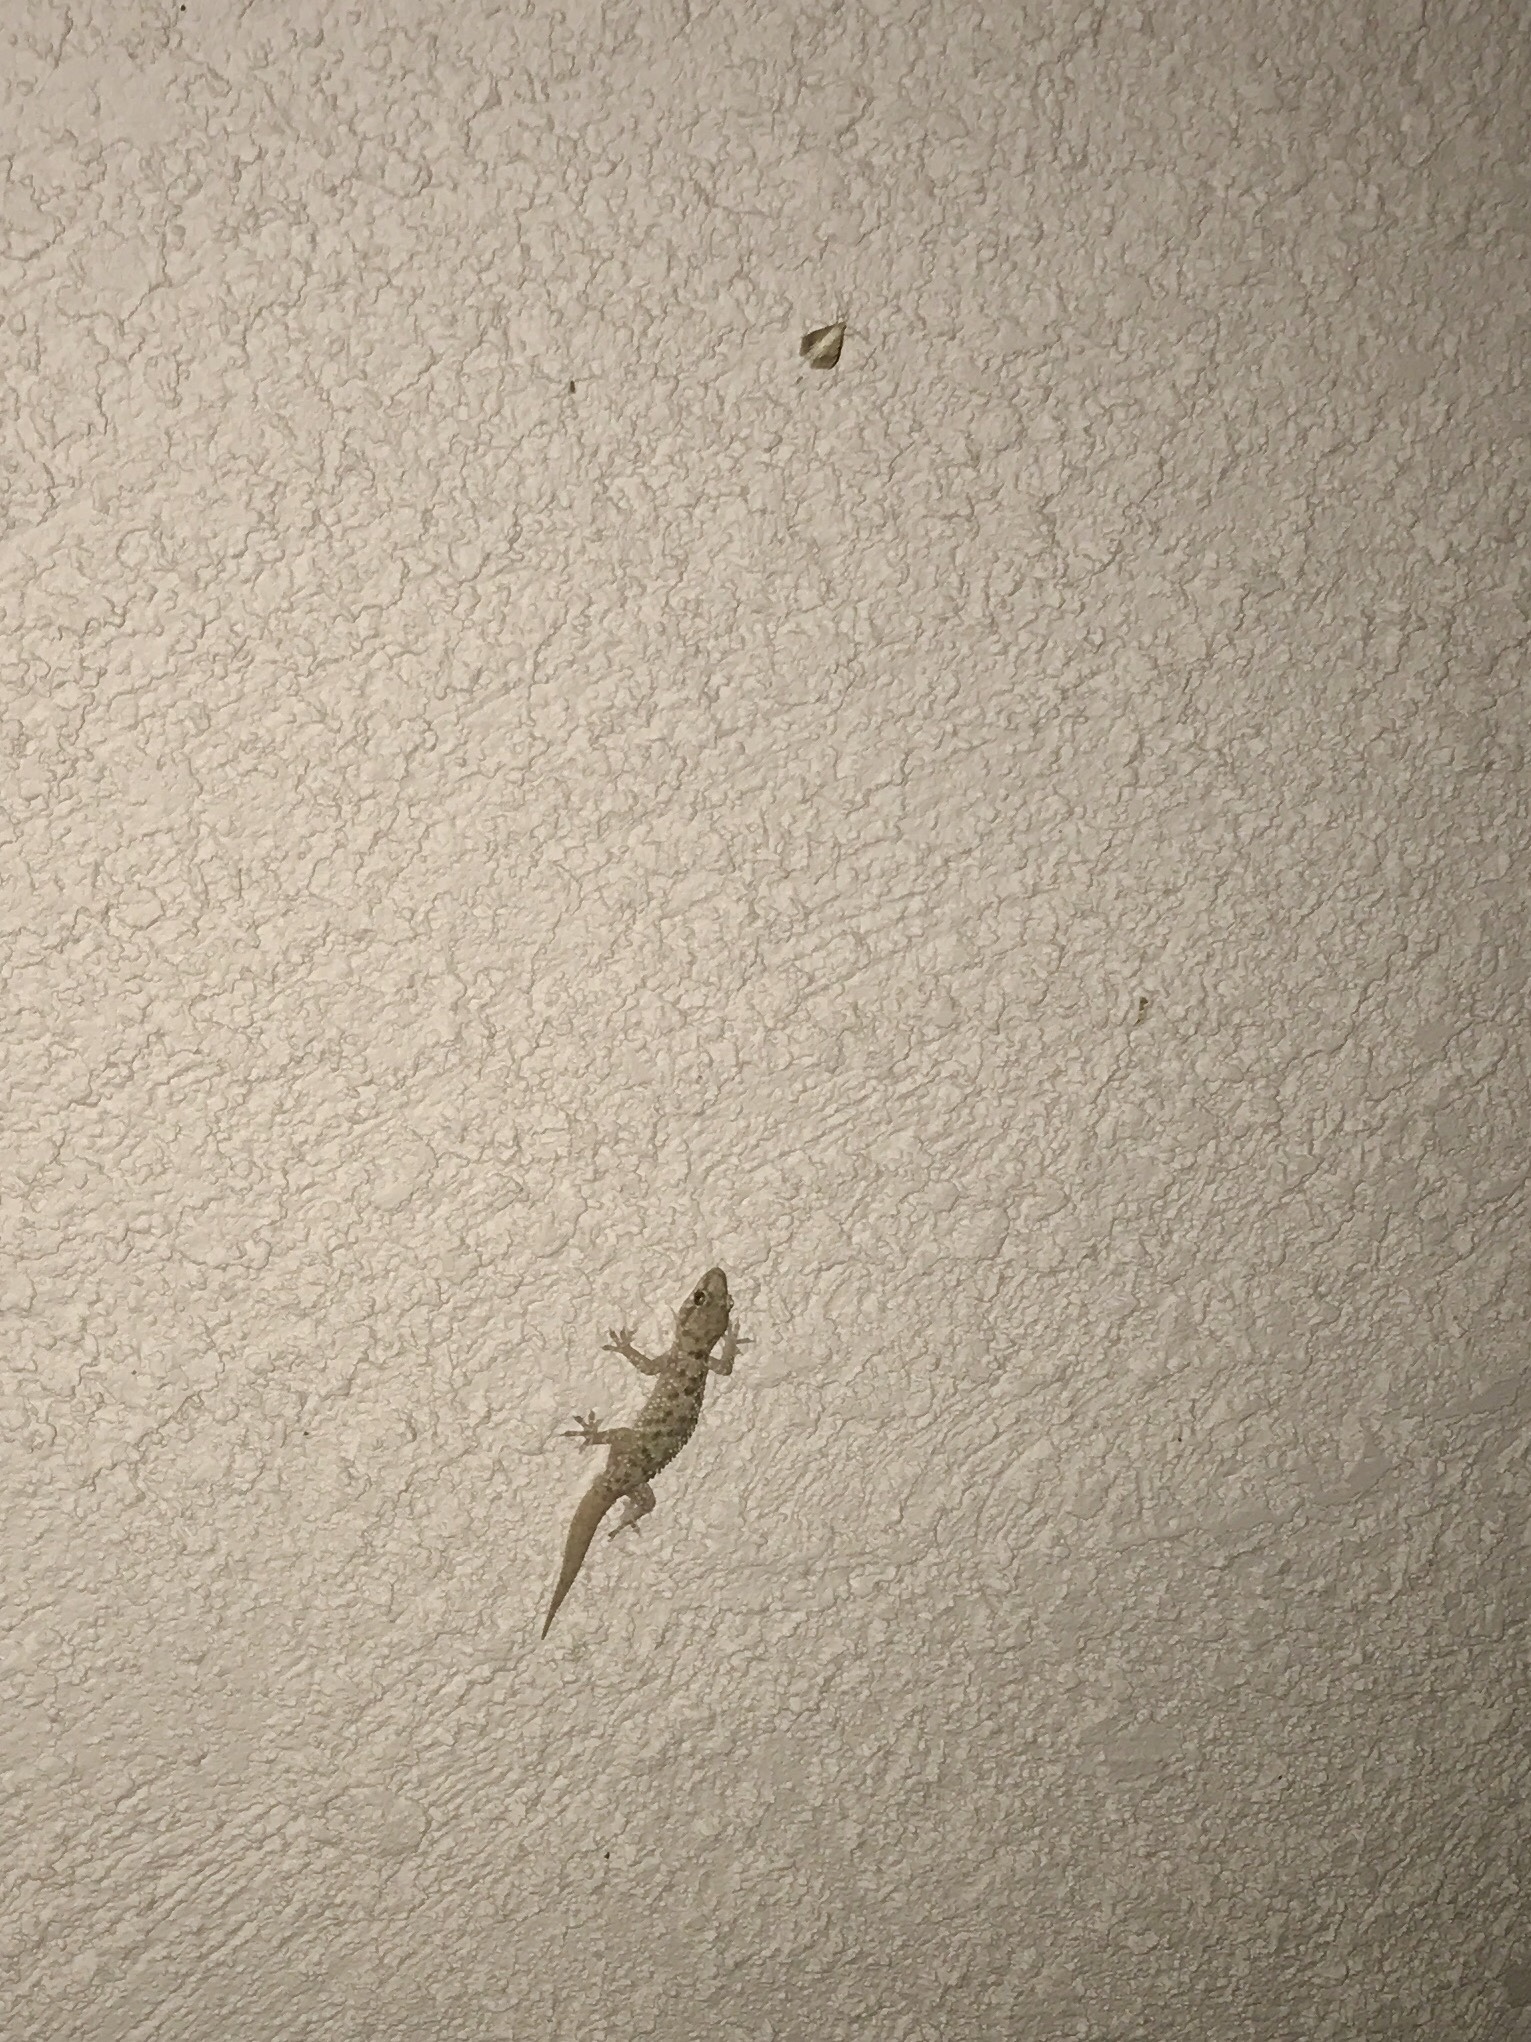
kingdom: Animalia
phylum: Chordata
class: Squamata
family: Gekkonidae
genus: Hemidactylus
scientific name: Hemidactylus turcicus
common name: Turkish gecko
